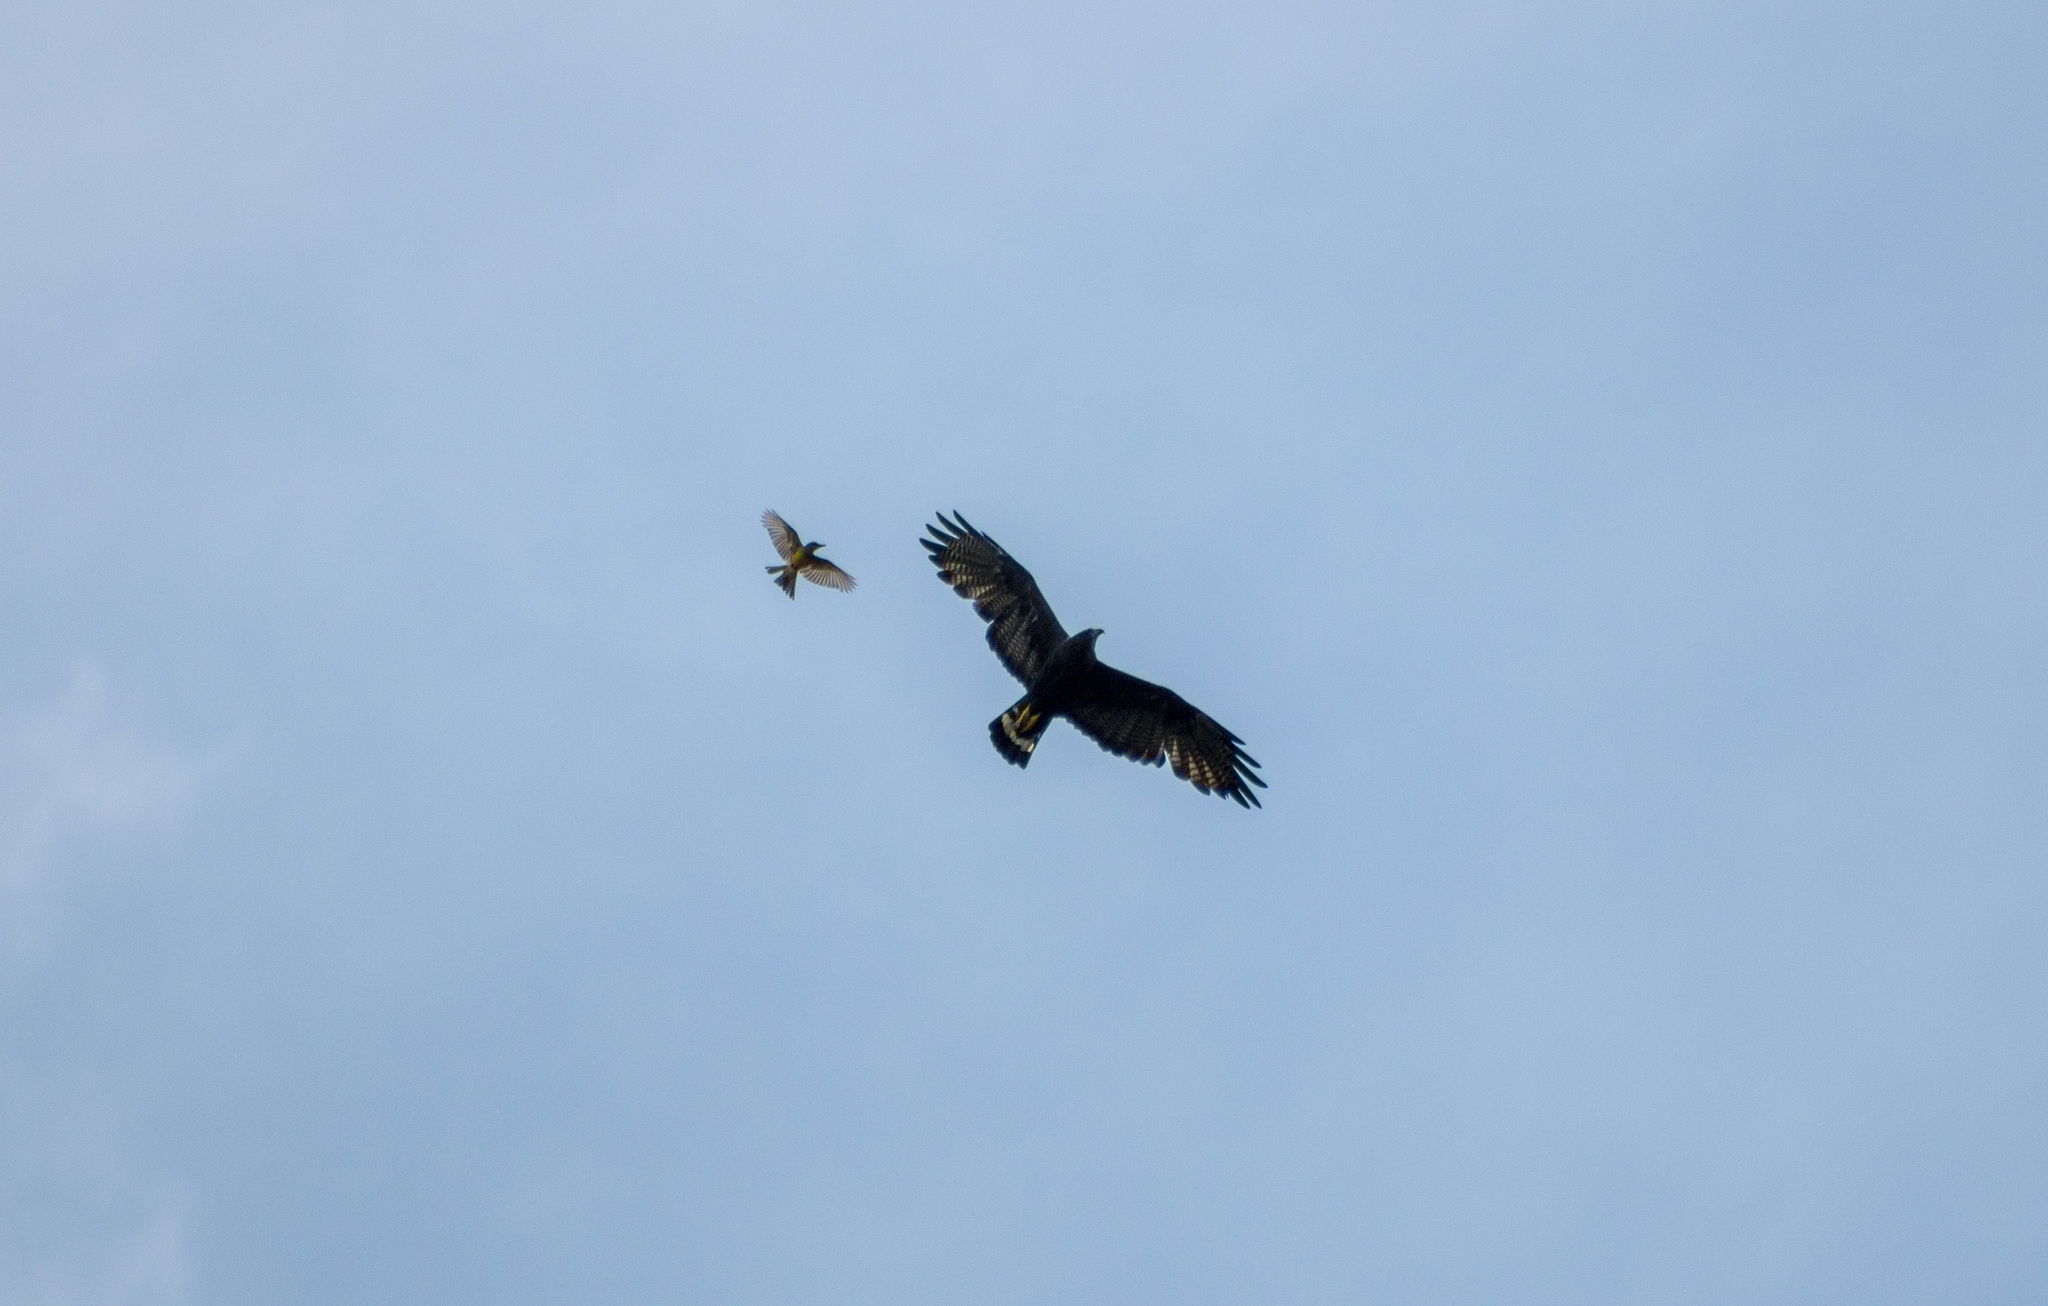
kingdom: Animalia
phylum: Chordata
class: Aves
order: Accipitriformes
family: Accipitridae
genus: Buteo
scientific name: Buteo albonotatus
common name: Zone-tailed hawk
